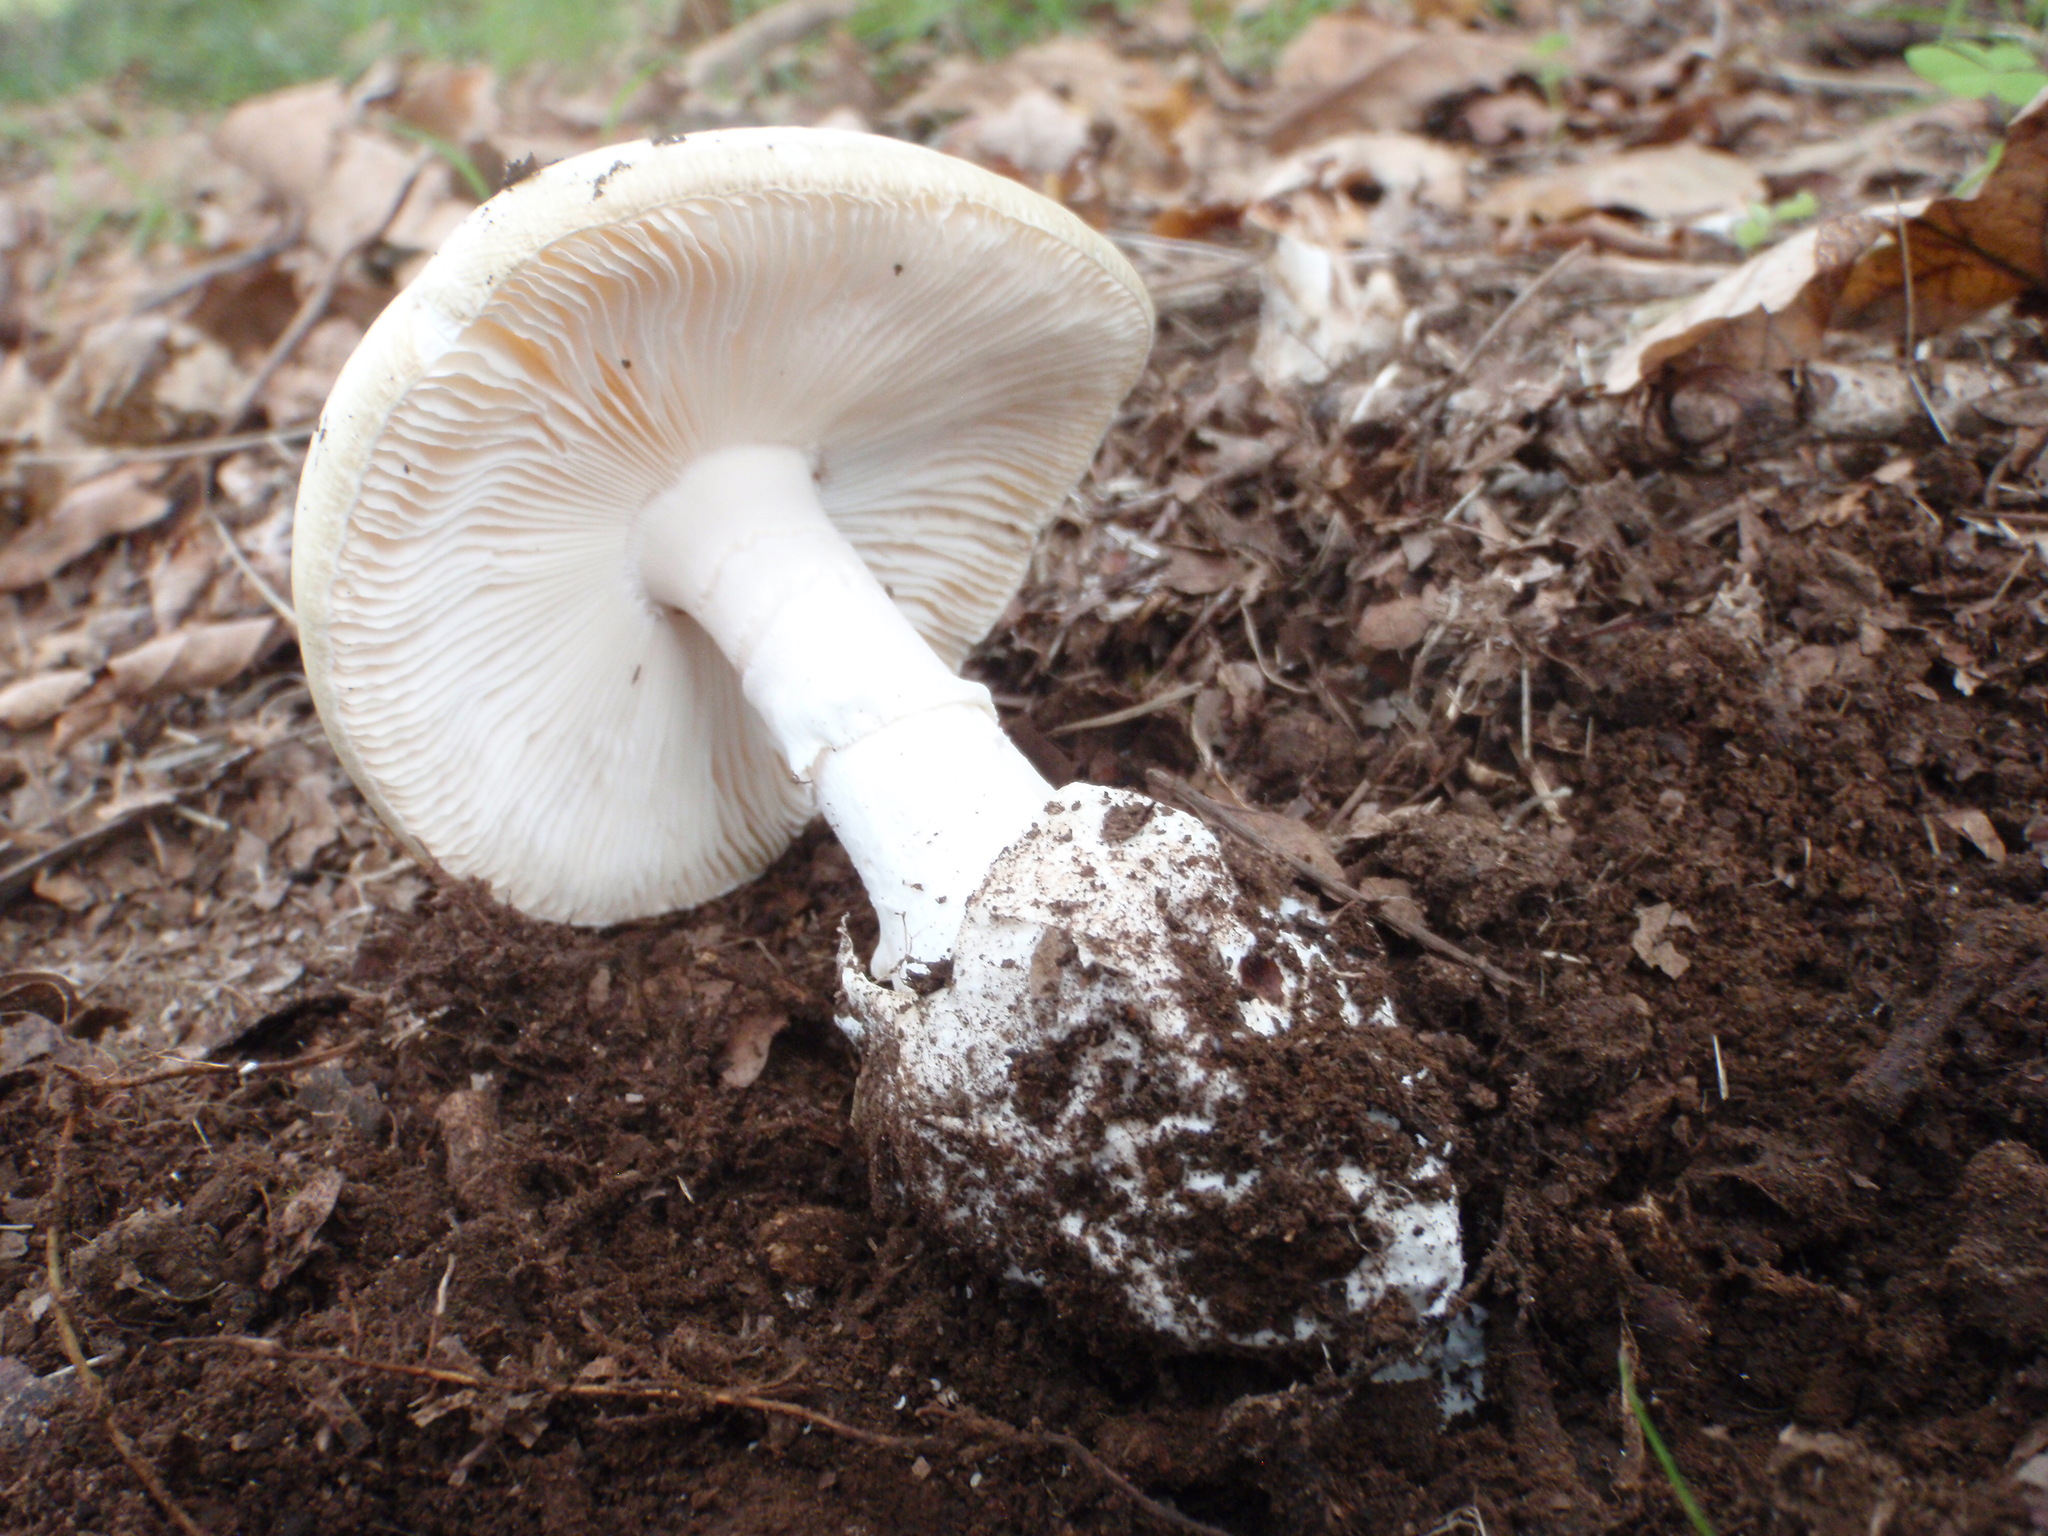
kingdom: Fungi
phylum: Basidiomycota
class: Agaricomycetes
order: Agaricales
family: Amanitaceae
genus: Amanita
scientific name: Amanita phalloides
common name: Death cap
